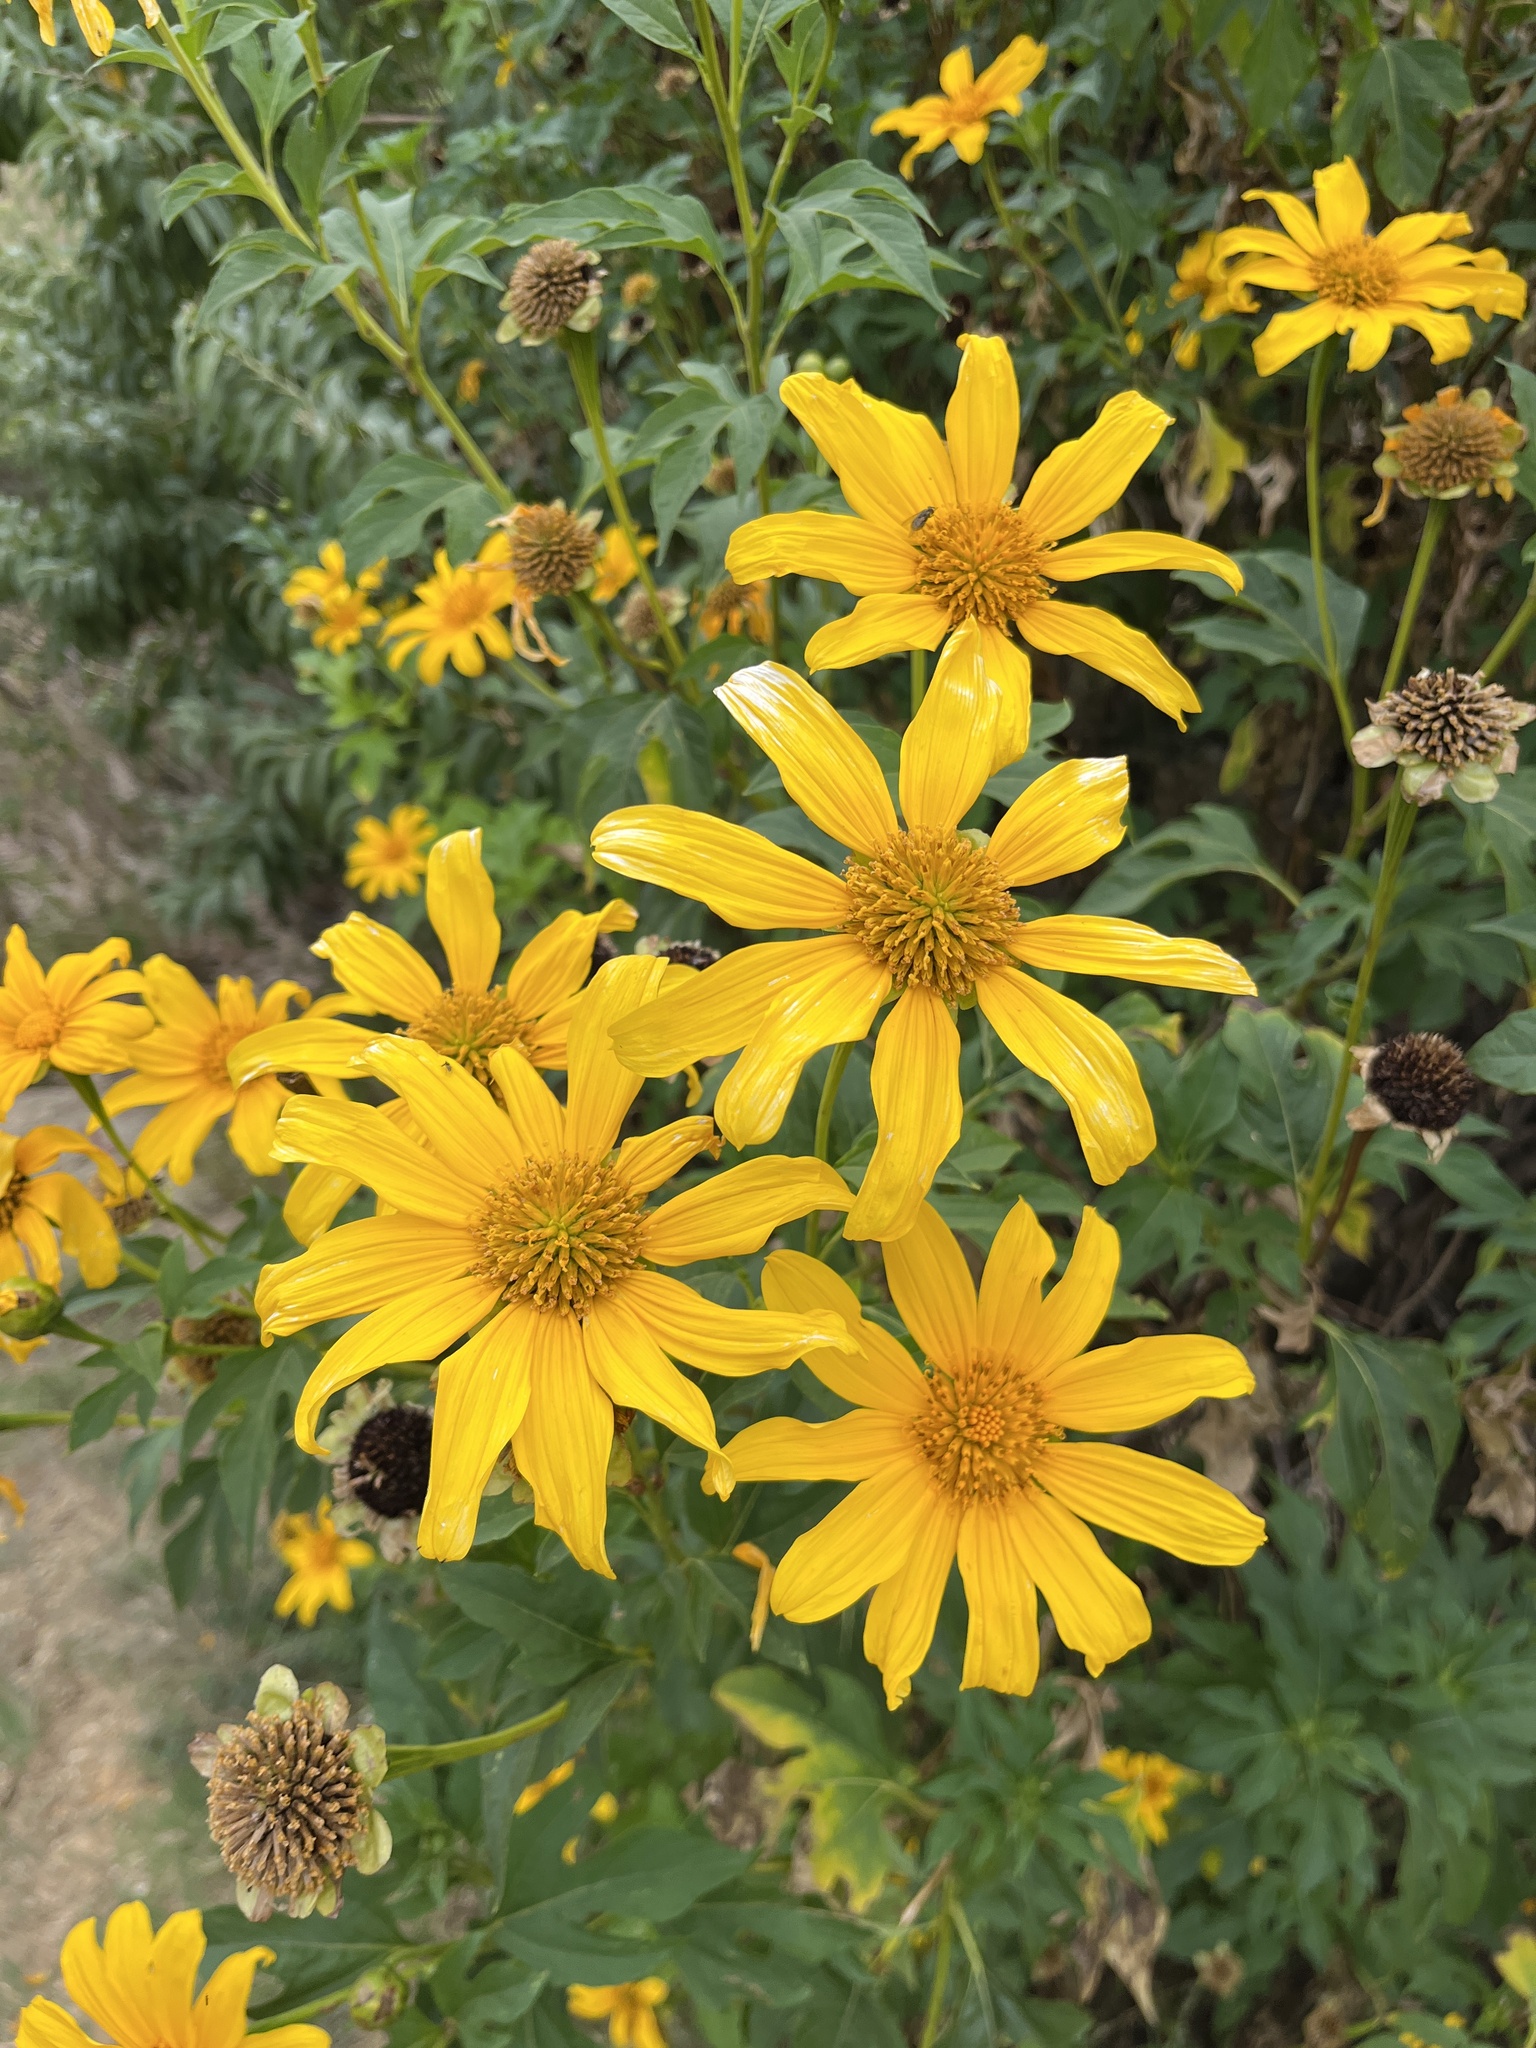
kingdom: Plantae
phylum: Tracheophyta
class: Magnoliopsida
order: Asterales
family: Asteraceae
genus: Tithonia
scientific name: Tithonia diversifolia
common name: Tree marigold
